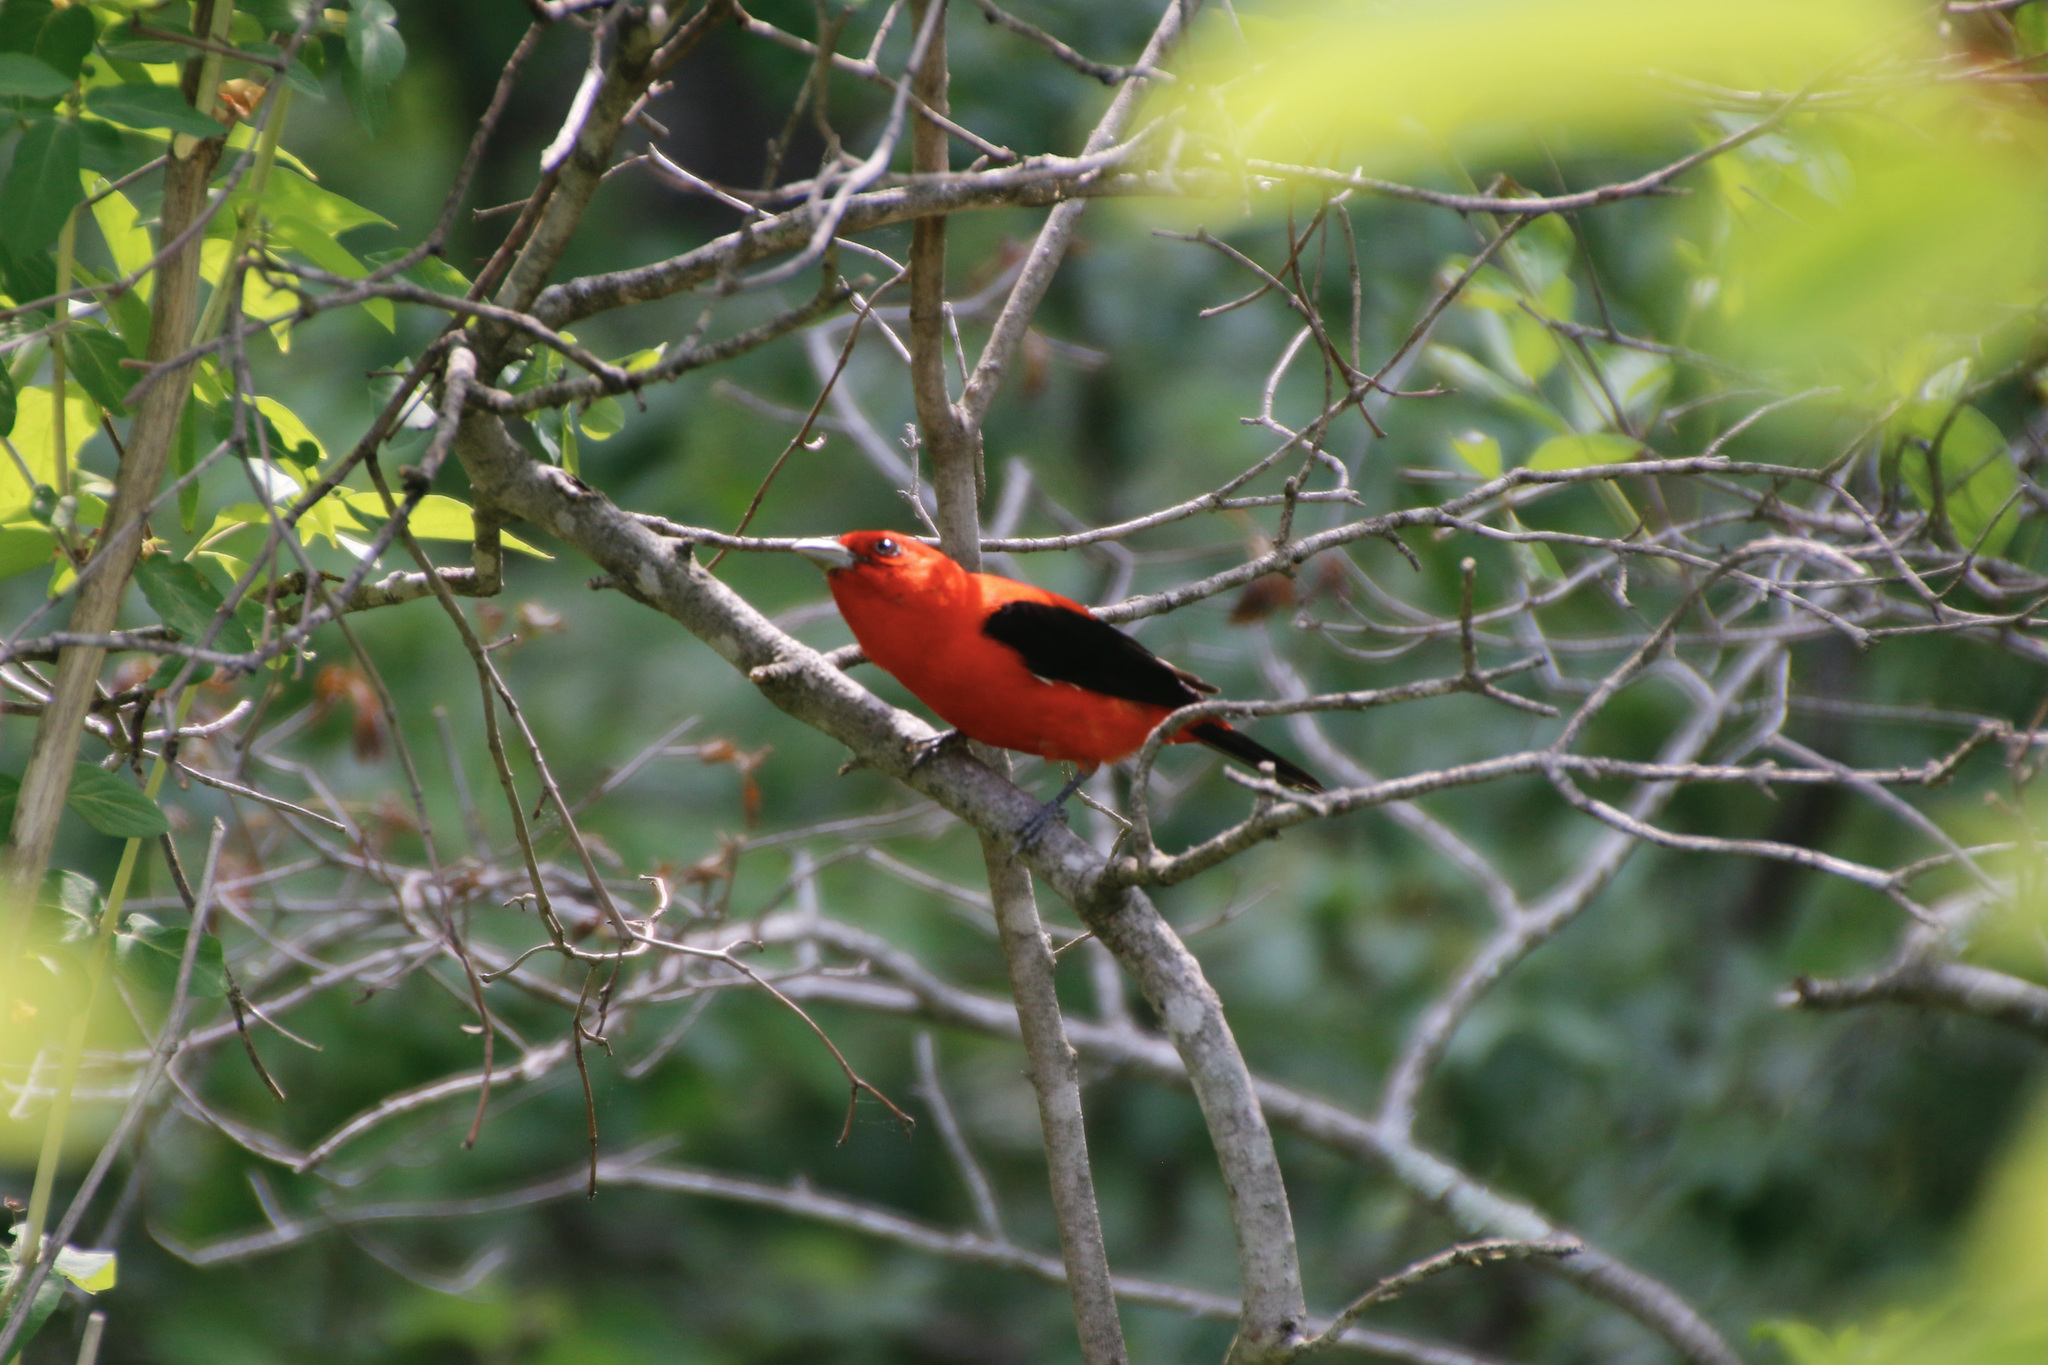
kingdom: Animalia
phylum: Chordata
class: Aves
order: Passeriformes
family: Cardinalidae
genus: Piranga
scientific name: Piranga olivacea
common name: Scarlet tanager
